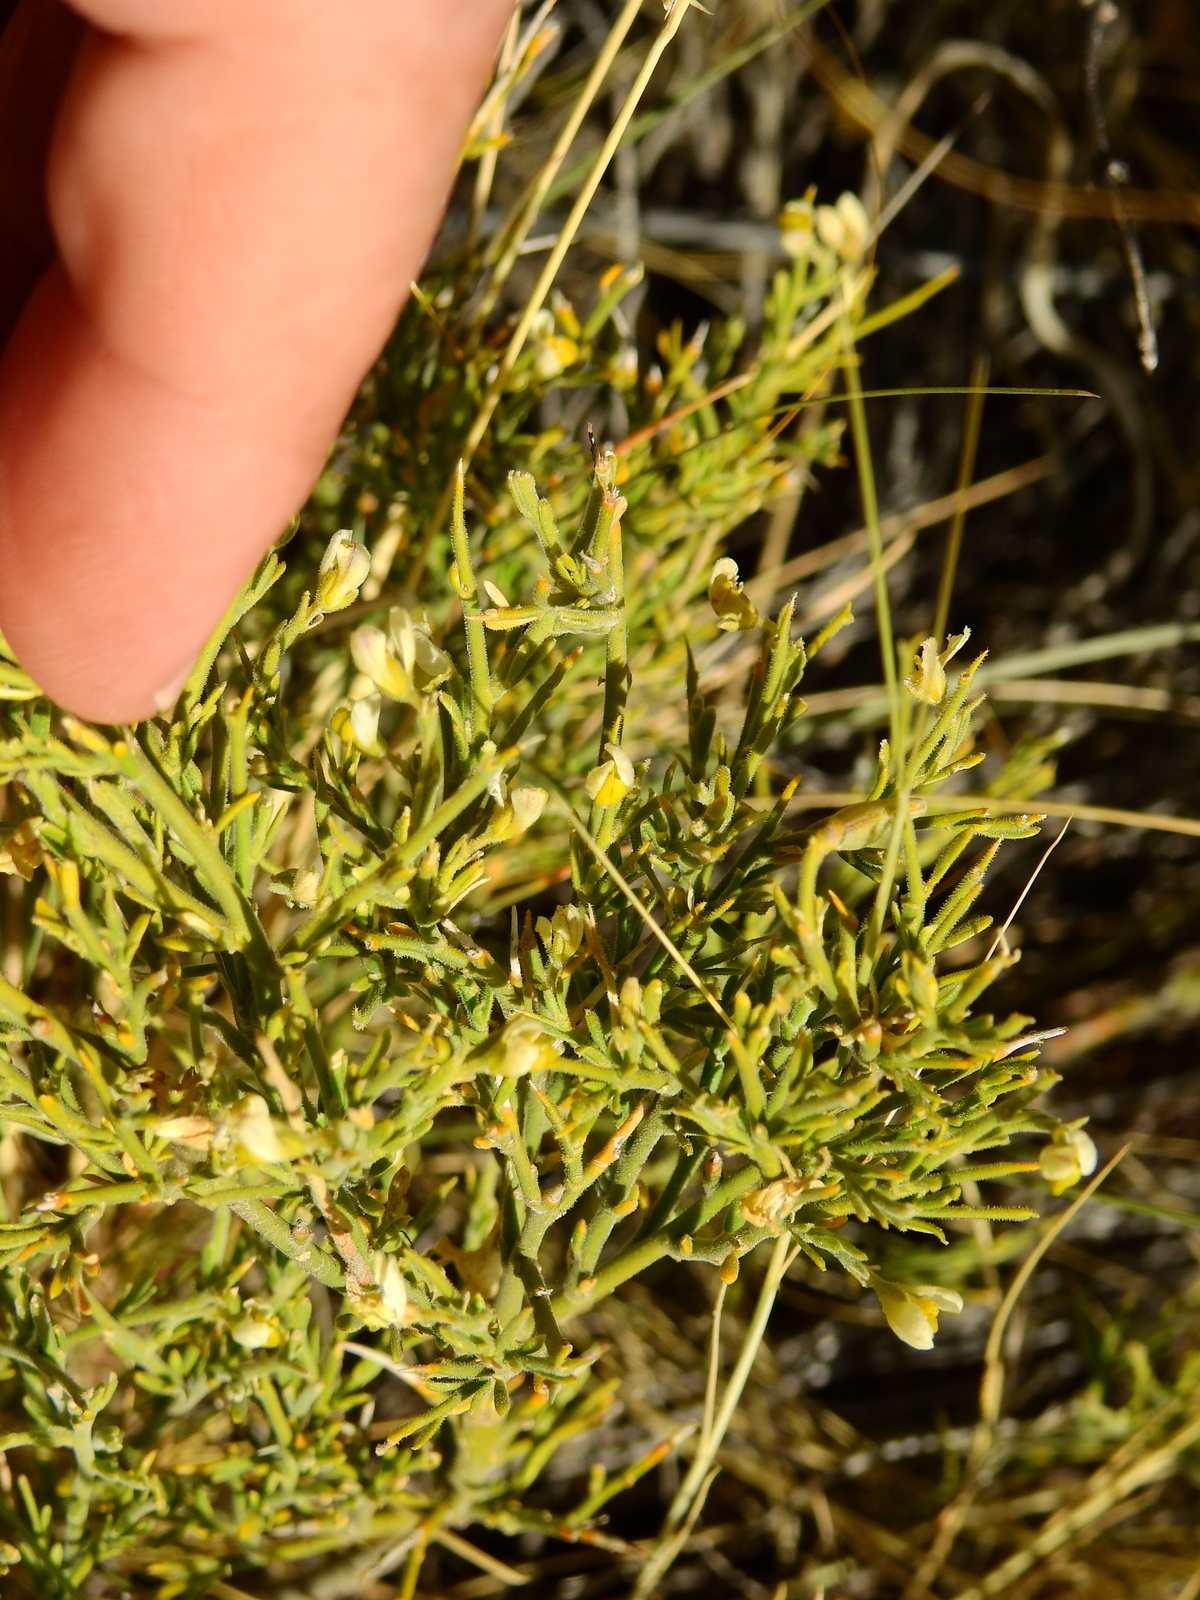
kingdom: Plantae
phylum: Tracheophyta
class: Magnoliopsida
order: Fabales
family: Polygalaceae
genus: Rhamphopetalum
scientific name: Rhamphopetalum microphyllum
